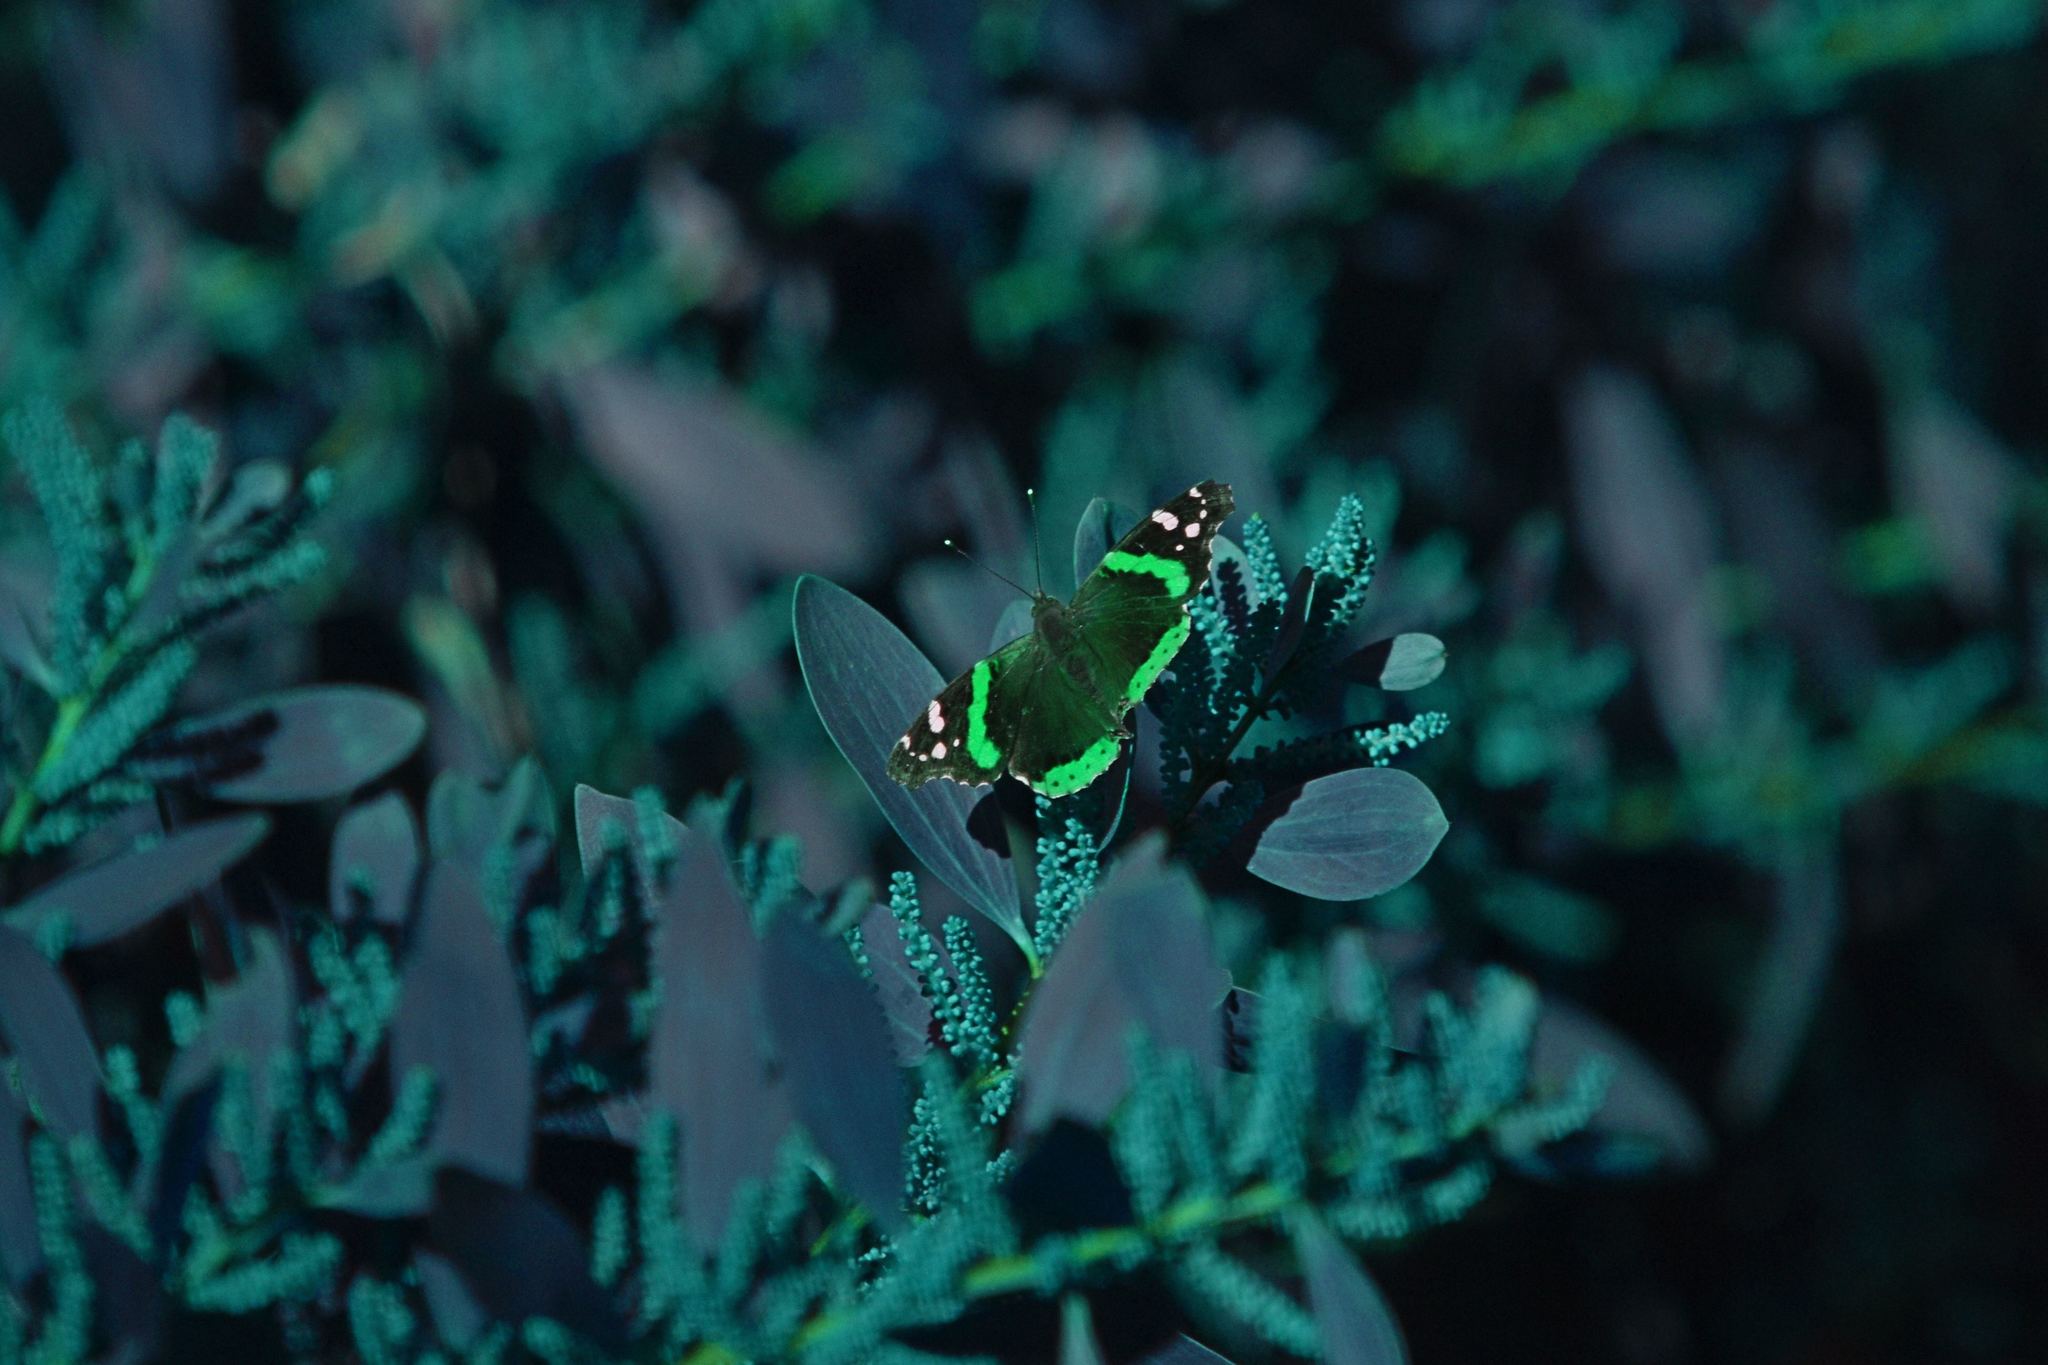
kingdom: Animalia
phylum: Arthropoda
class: Insecta
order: Lepidoptera
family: Nymphalidae
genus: Vanessa
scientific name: Vanessa atalanta
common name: Red admiral
